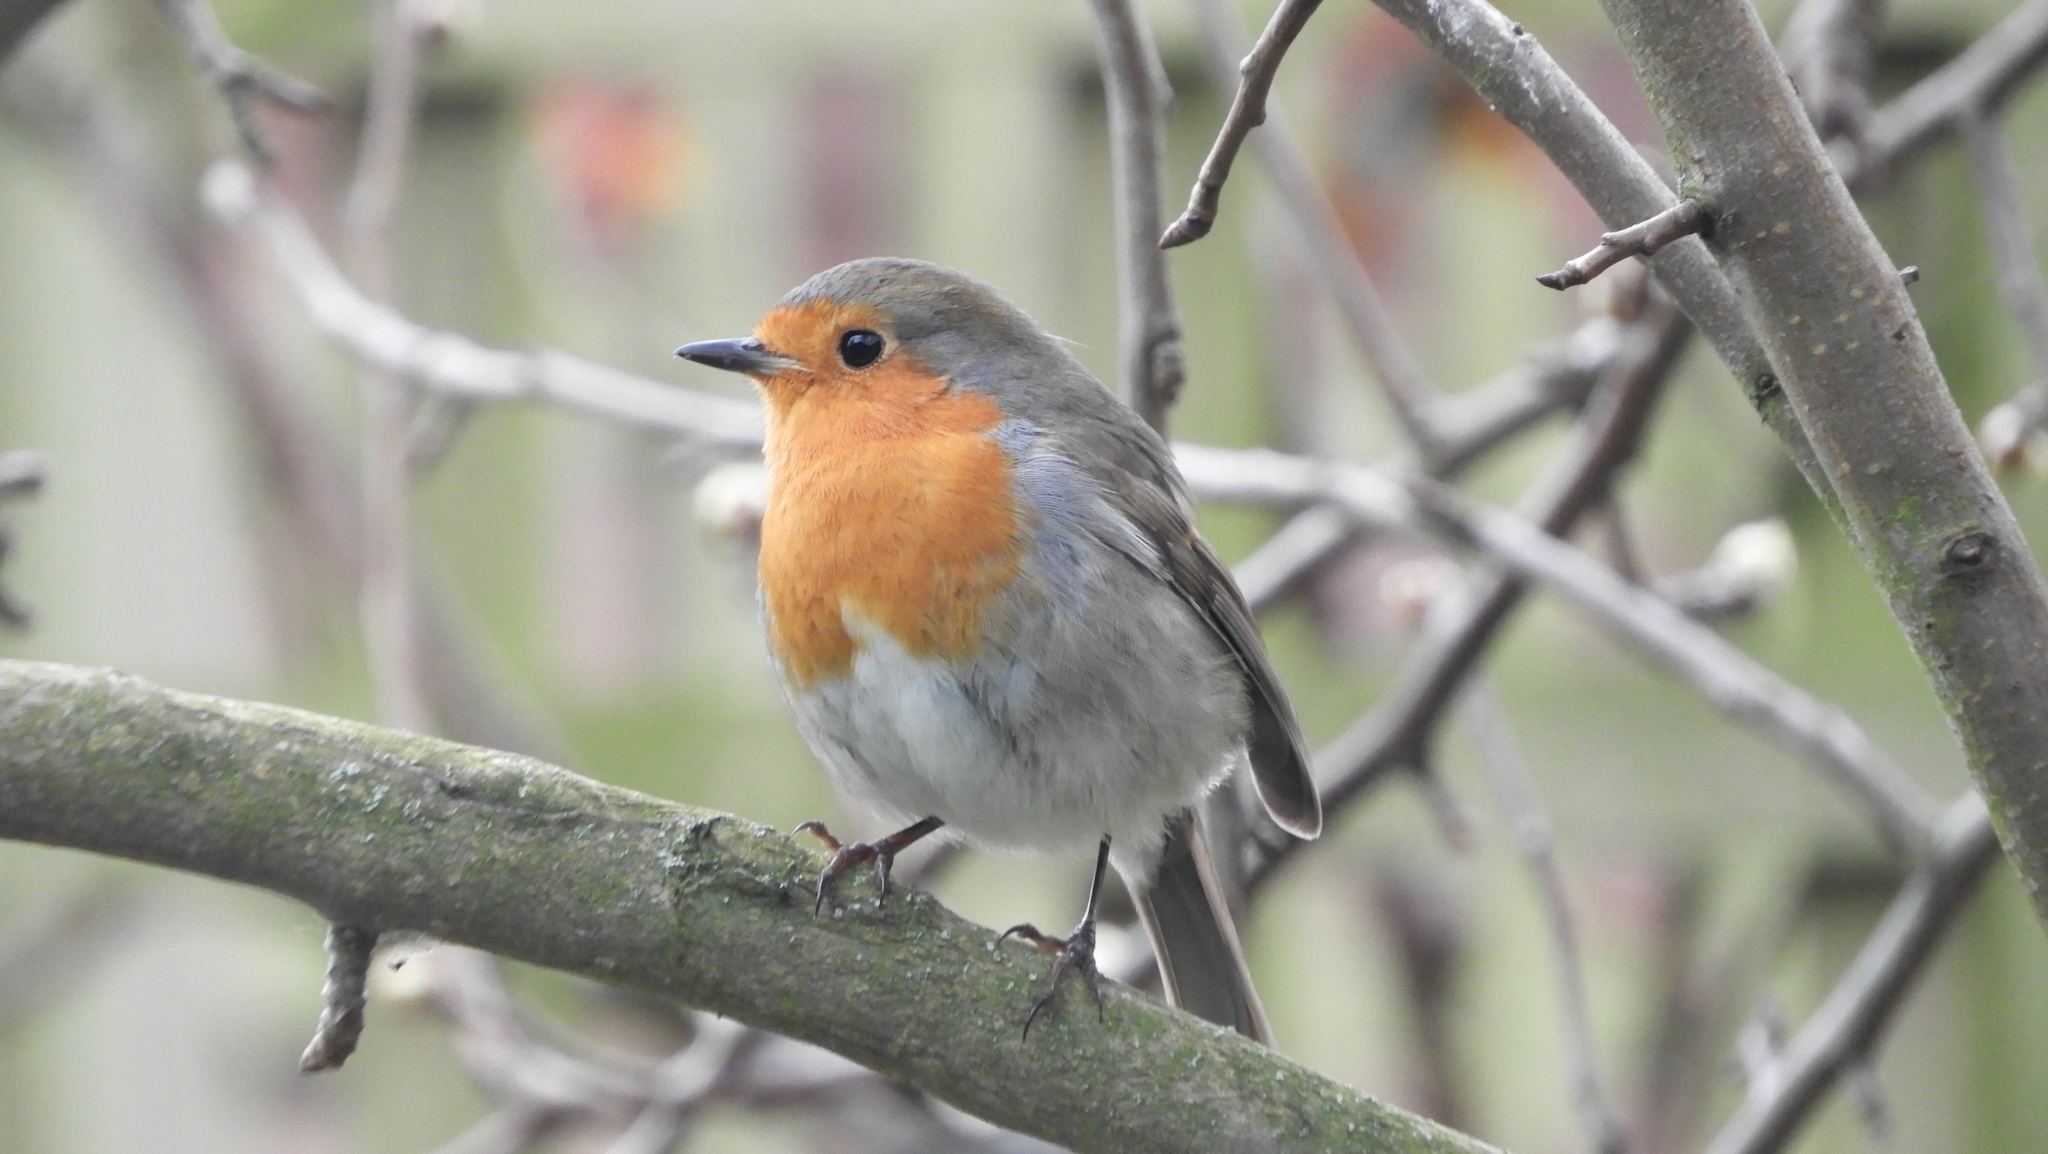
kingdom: Animalia
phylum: Chordata
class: Aves
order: Passeriformes
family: Muscicapidae
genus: Erithacus
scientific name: Erithacus rubecula
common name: European robin
